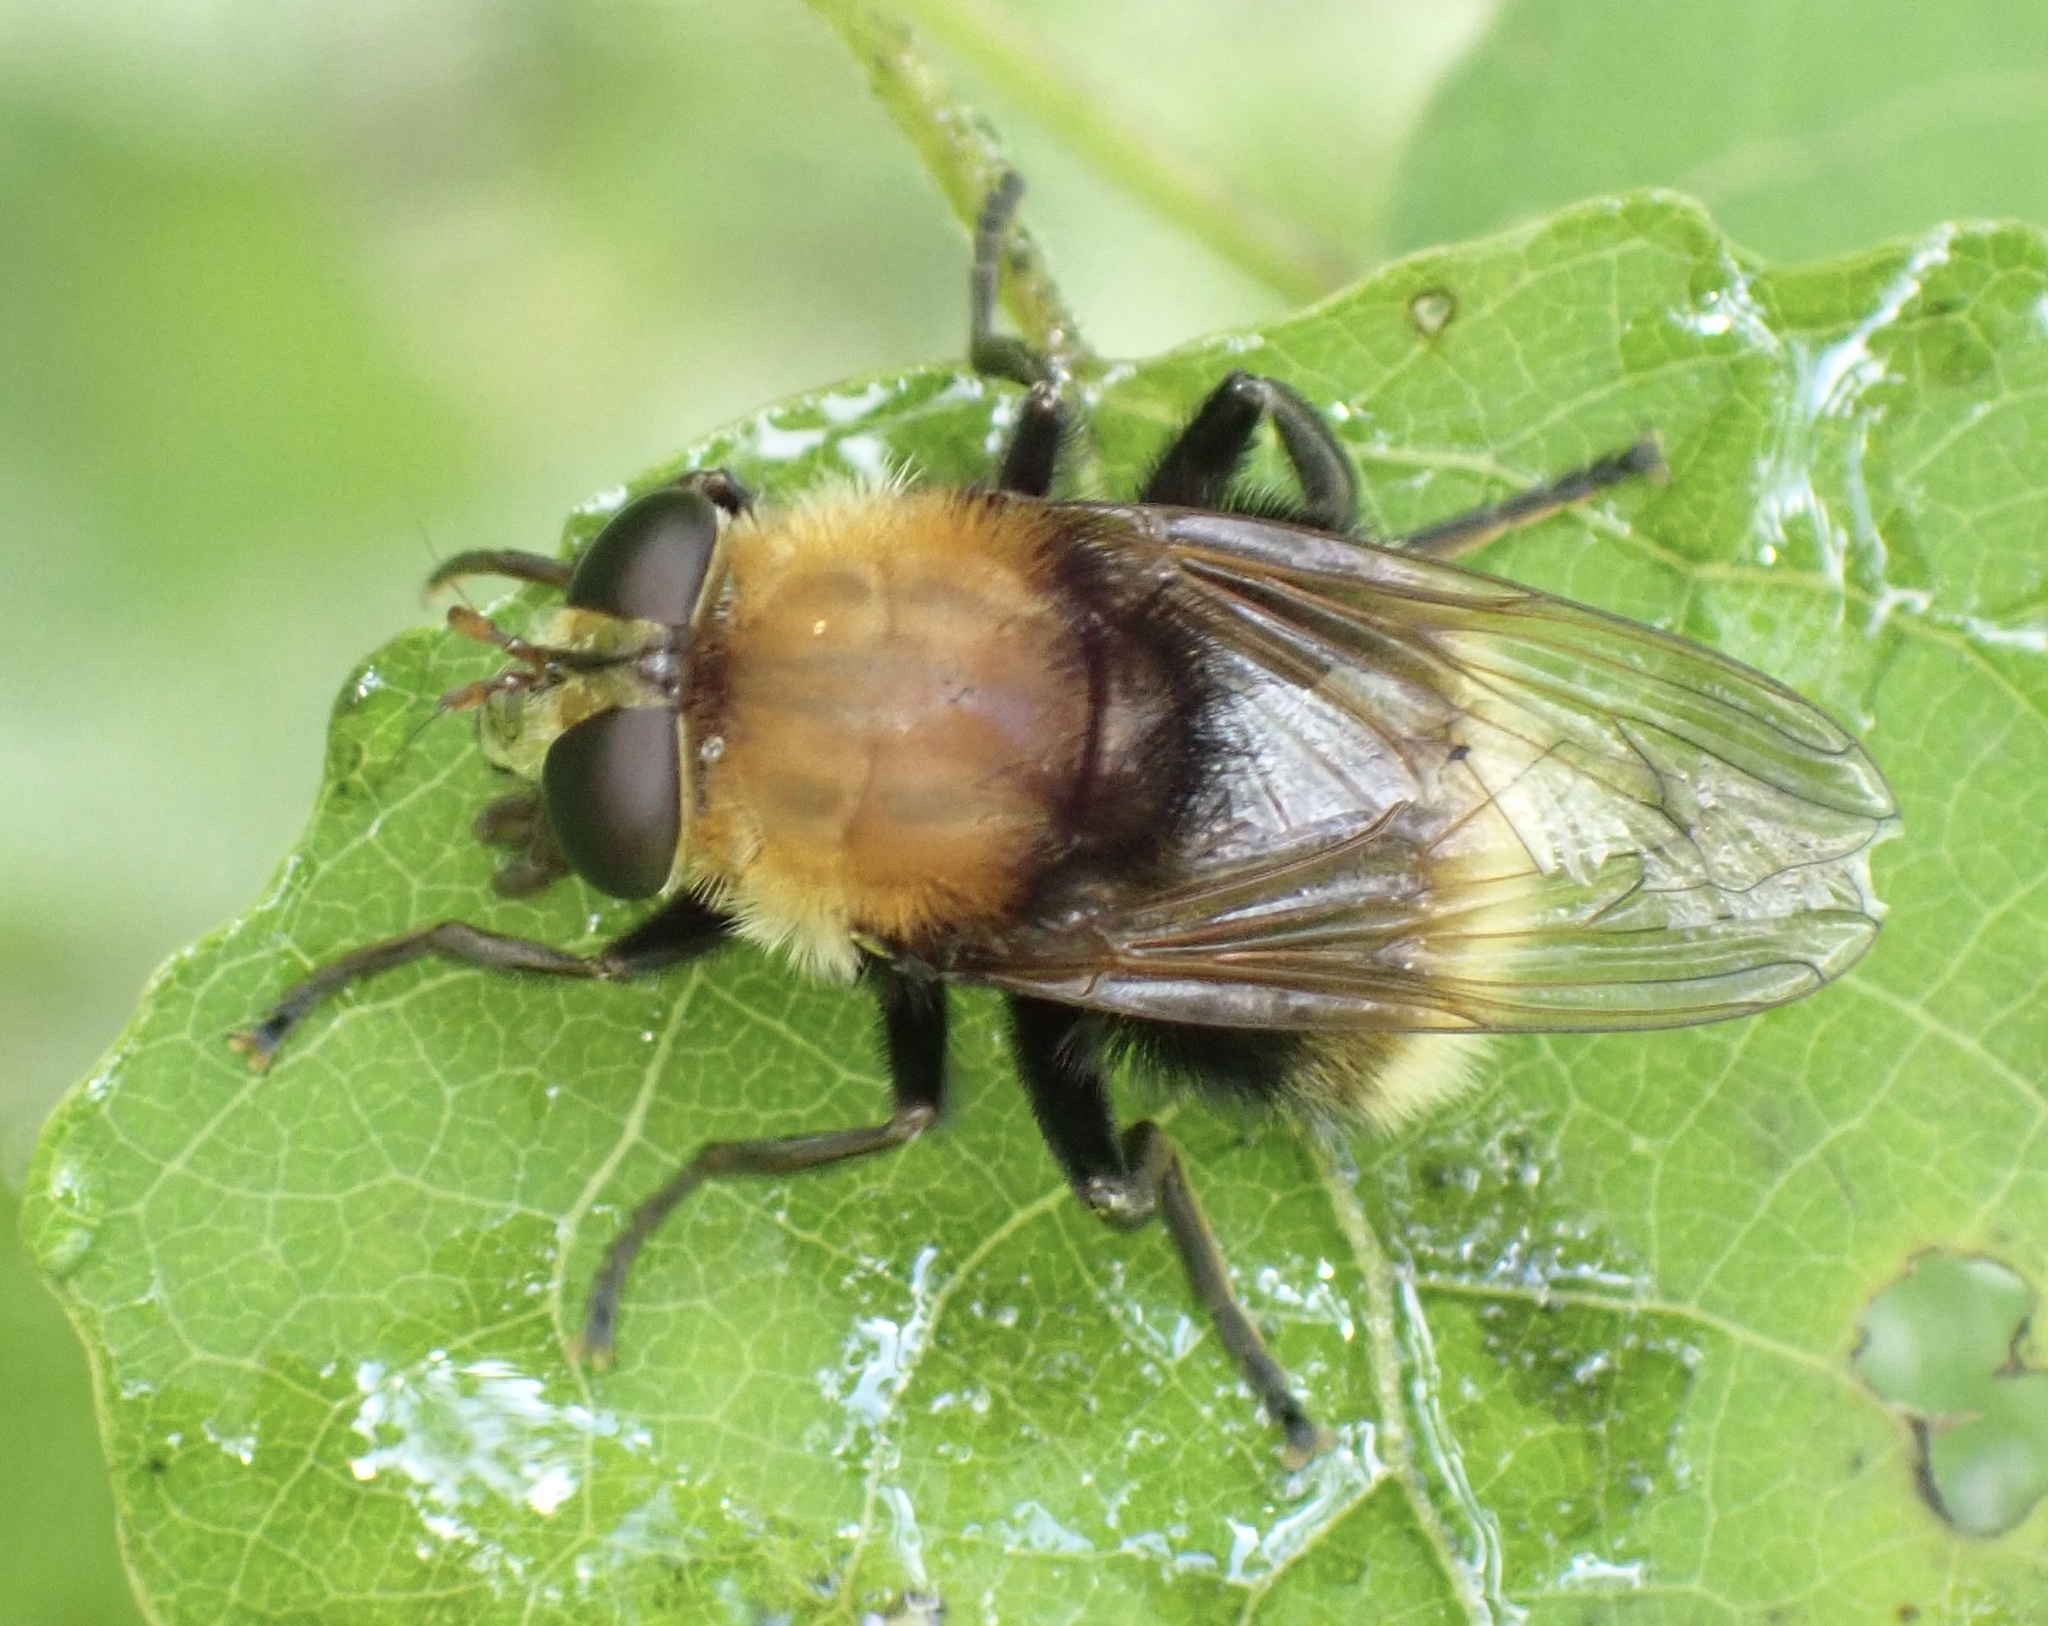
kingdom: Animalia
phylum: Arthropoda
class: Insecta
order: Diptera
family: Syrphidae
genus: Criorhina
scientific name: Criorhina berberina
